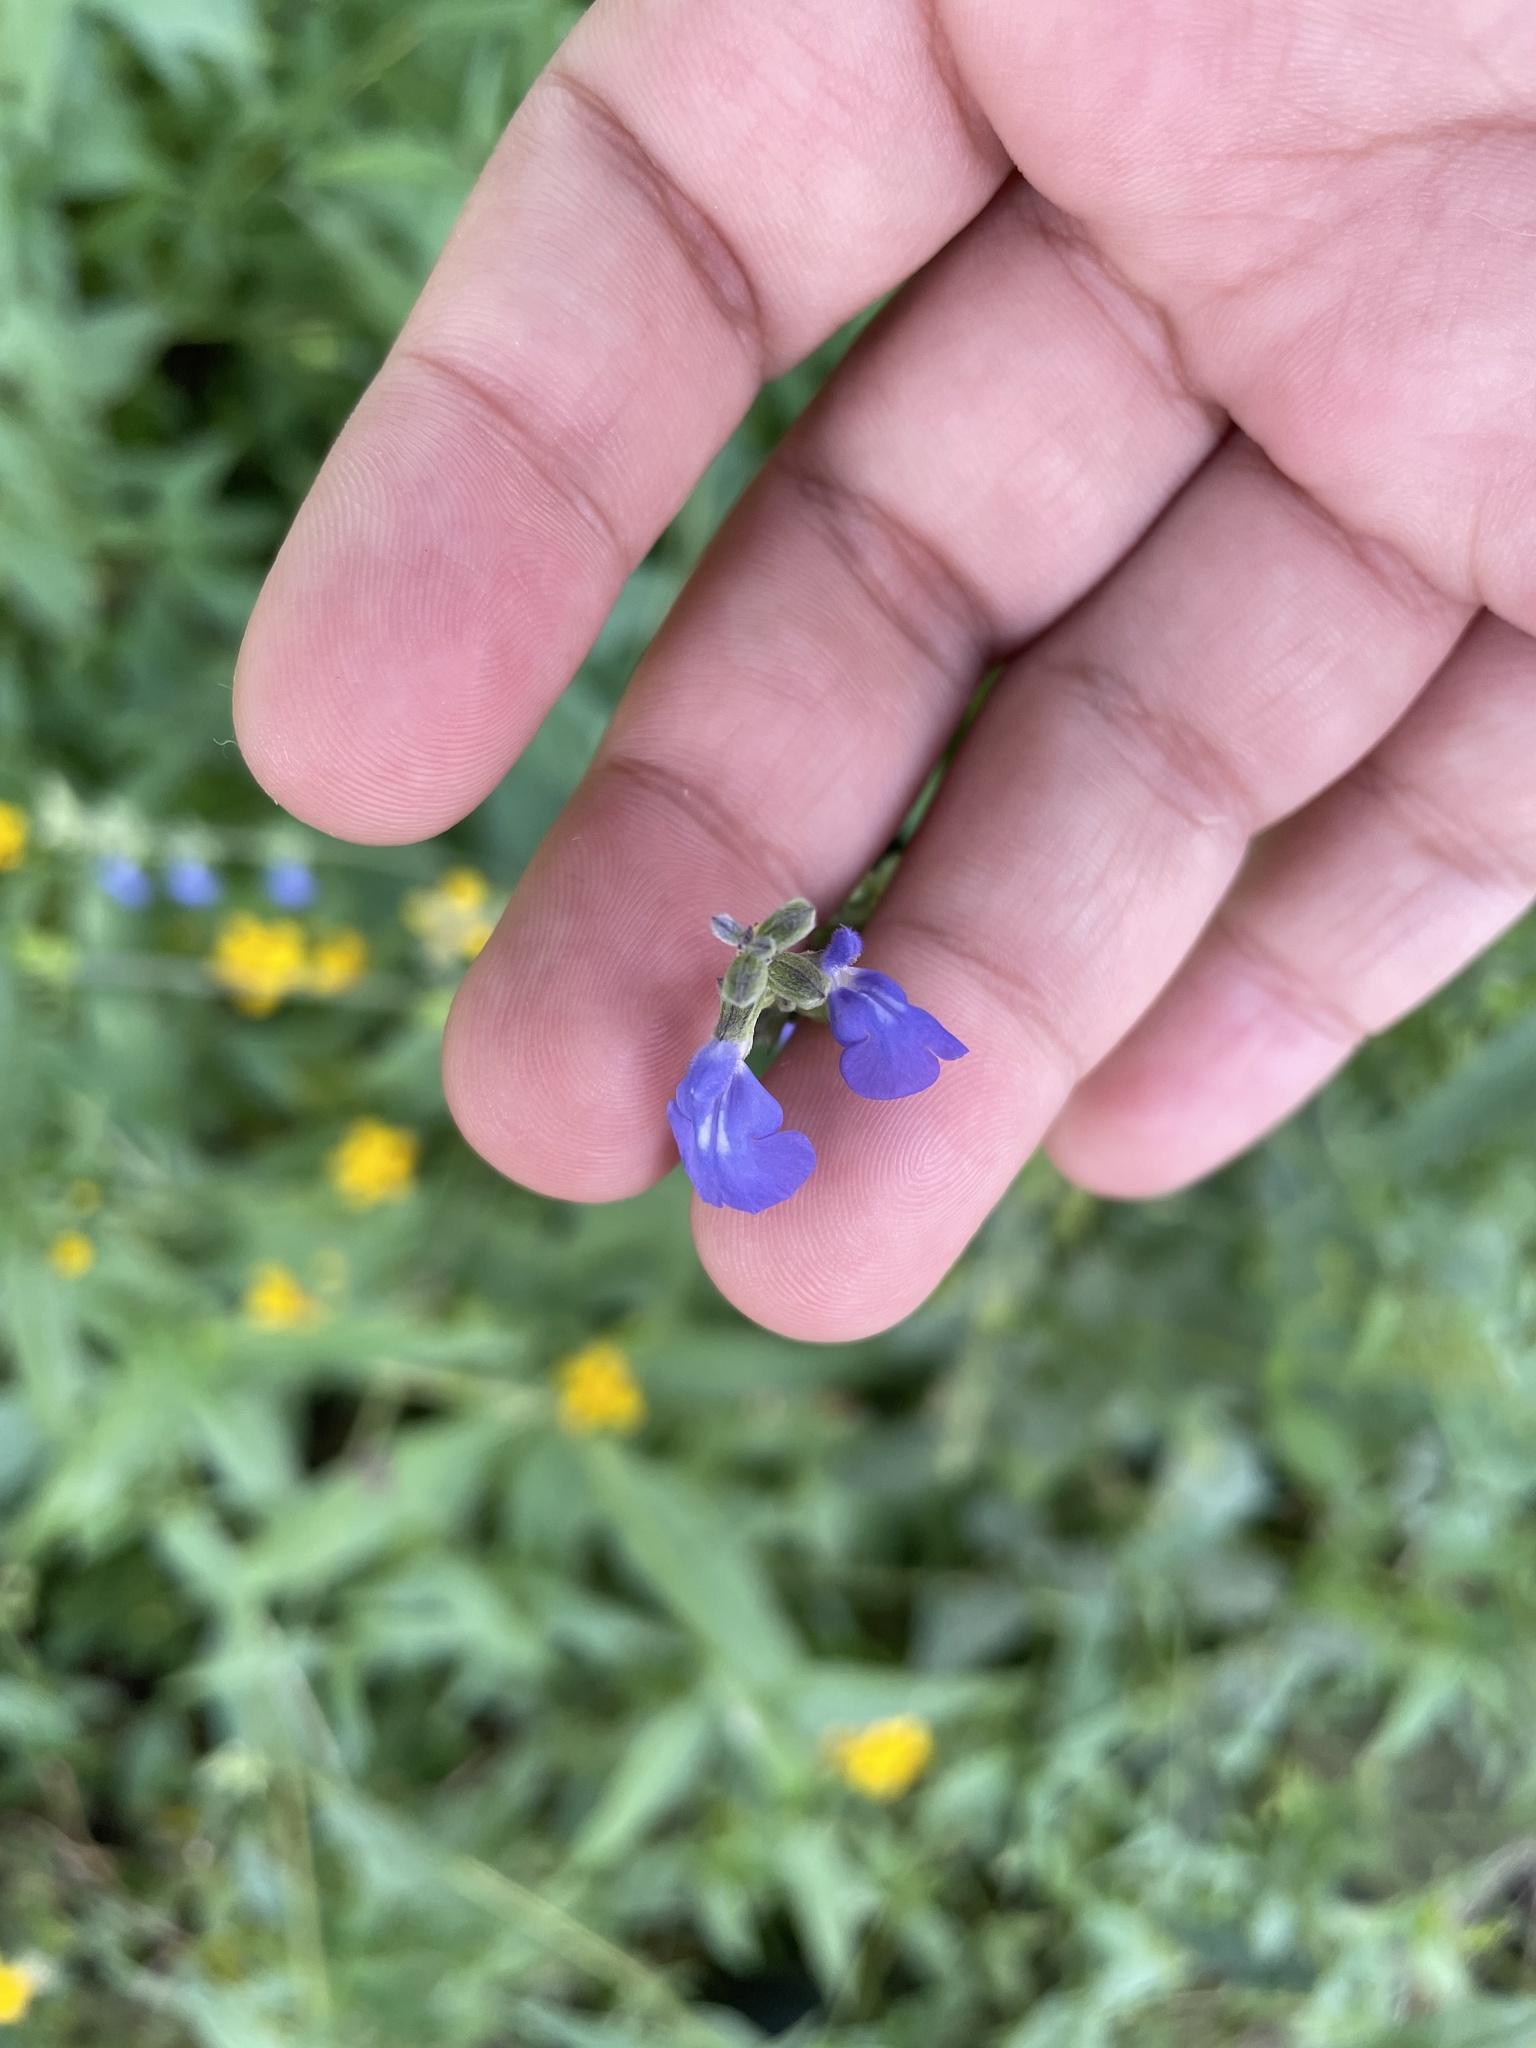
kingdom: Plantae
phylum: Tracheophyta
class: Magnoliopsida
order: Lamiales
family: Lamiaceae
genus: Salvia
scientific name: Salvia leptostachys
